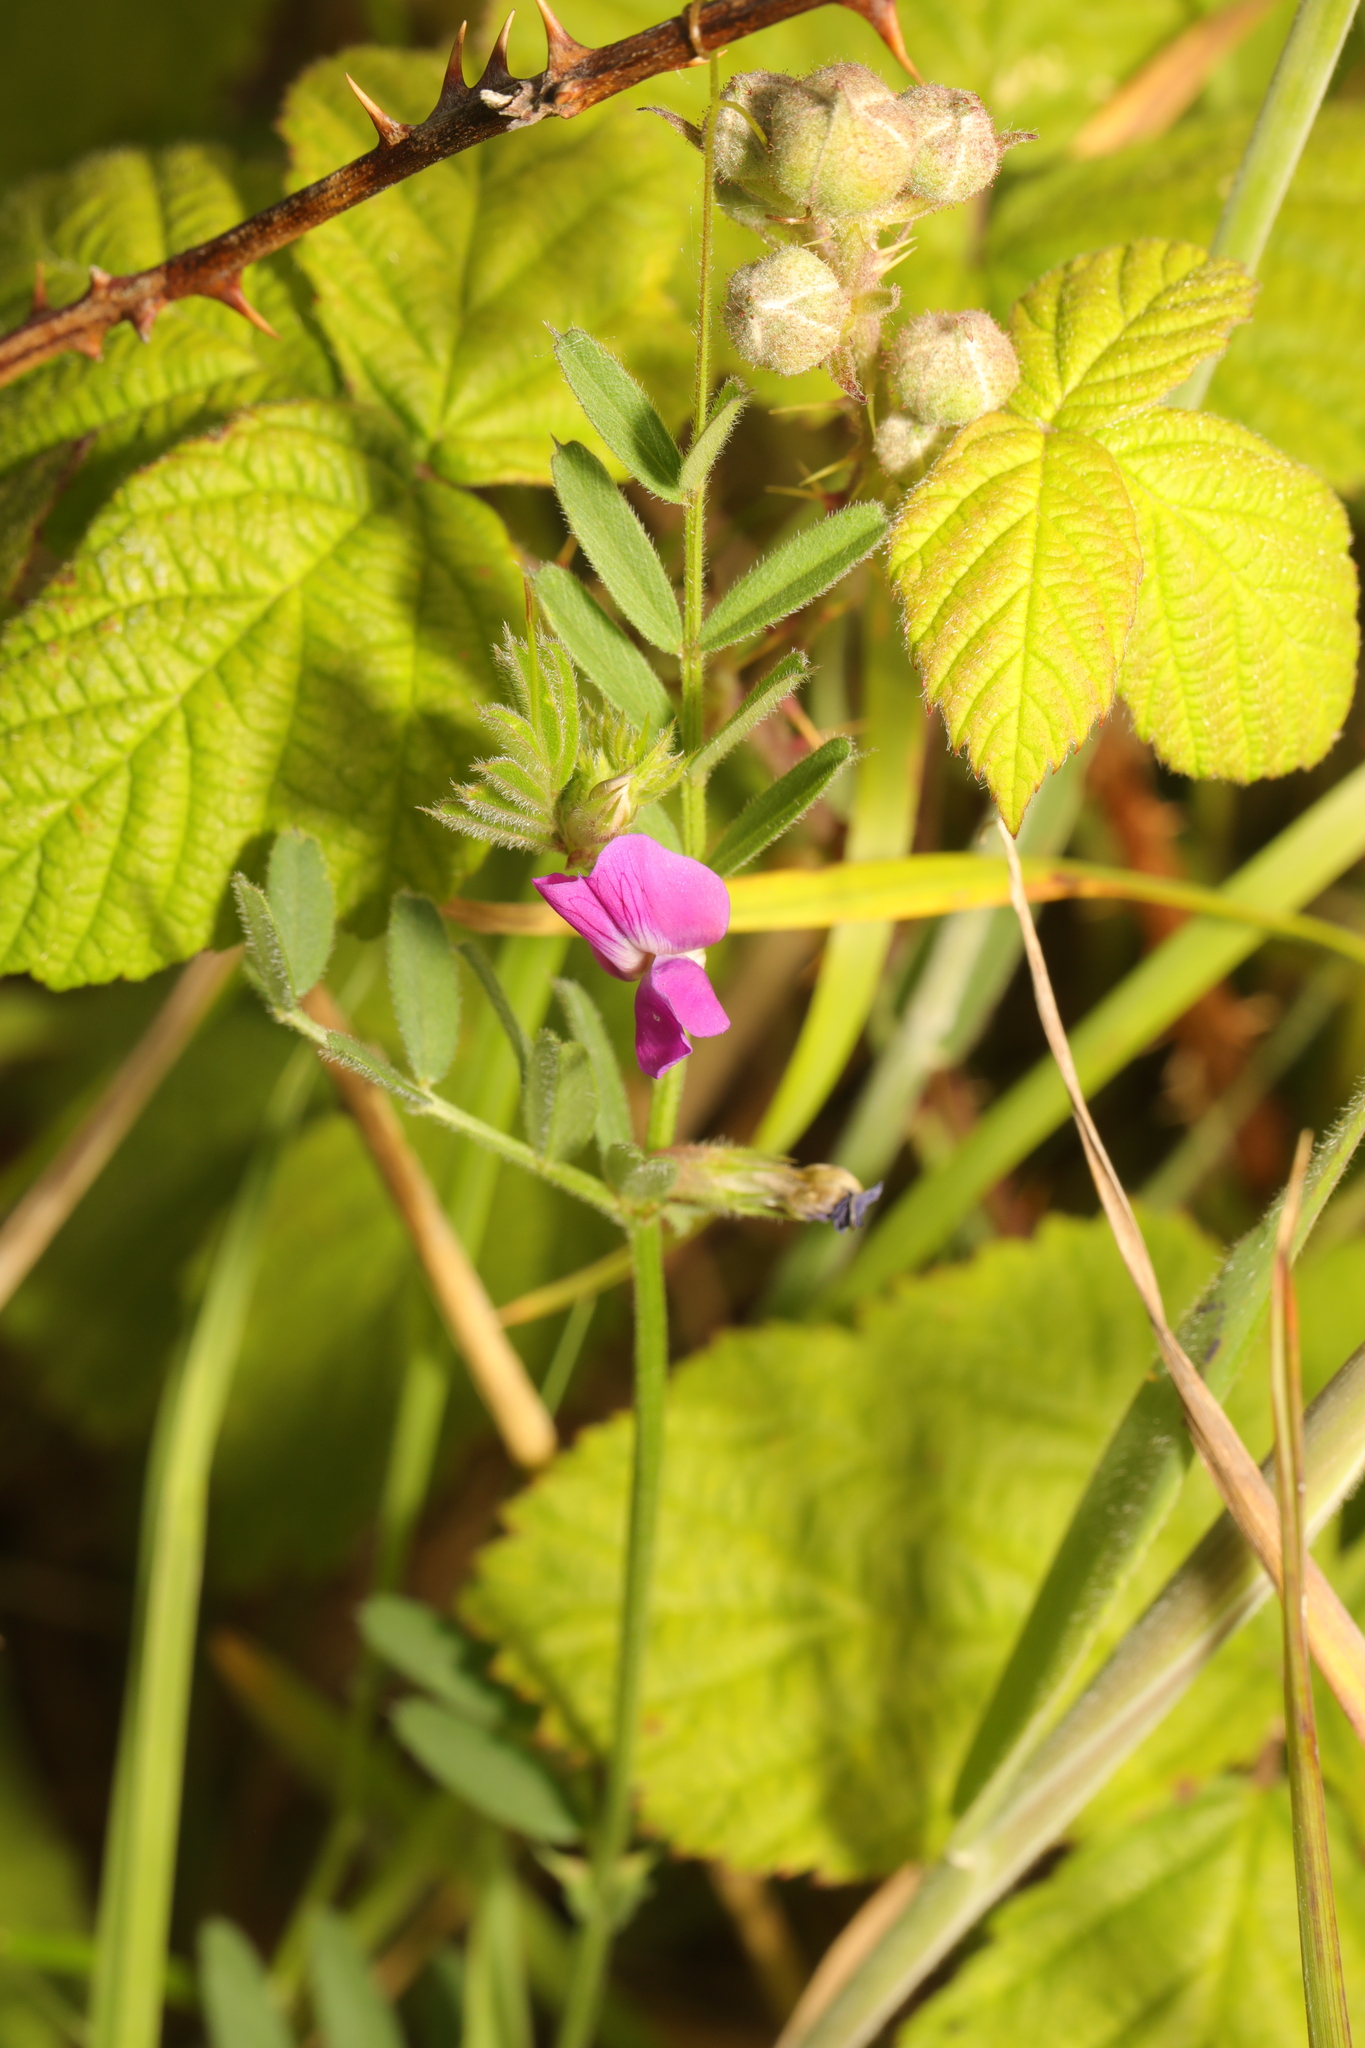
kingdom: Plantae
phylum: Tracheophyta
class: Magnoliopsida
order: Fabales
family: Fabaceae
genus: Vicia
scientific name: Vicia sativa
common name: Garden vetch
